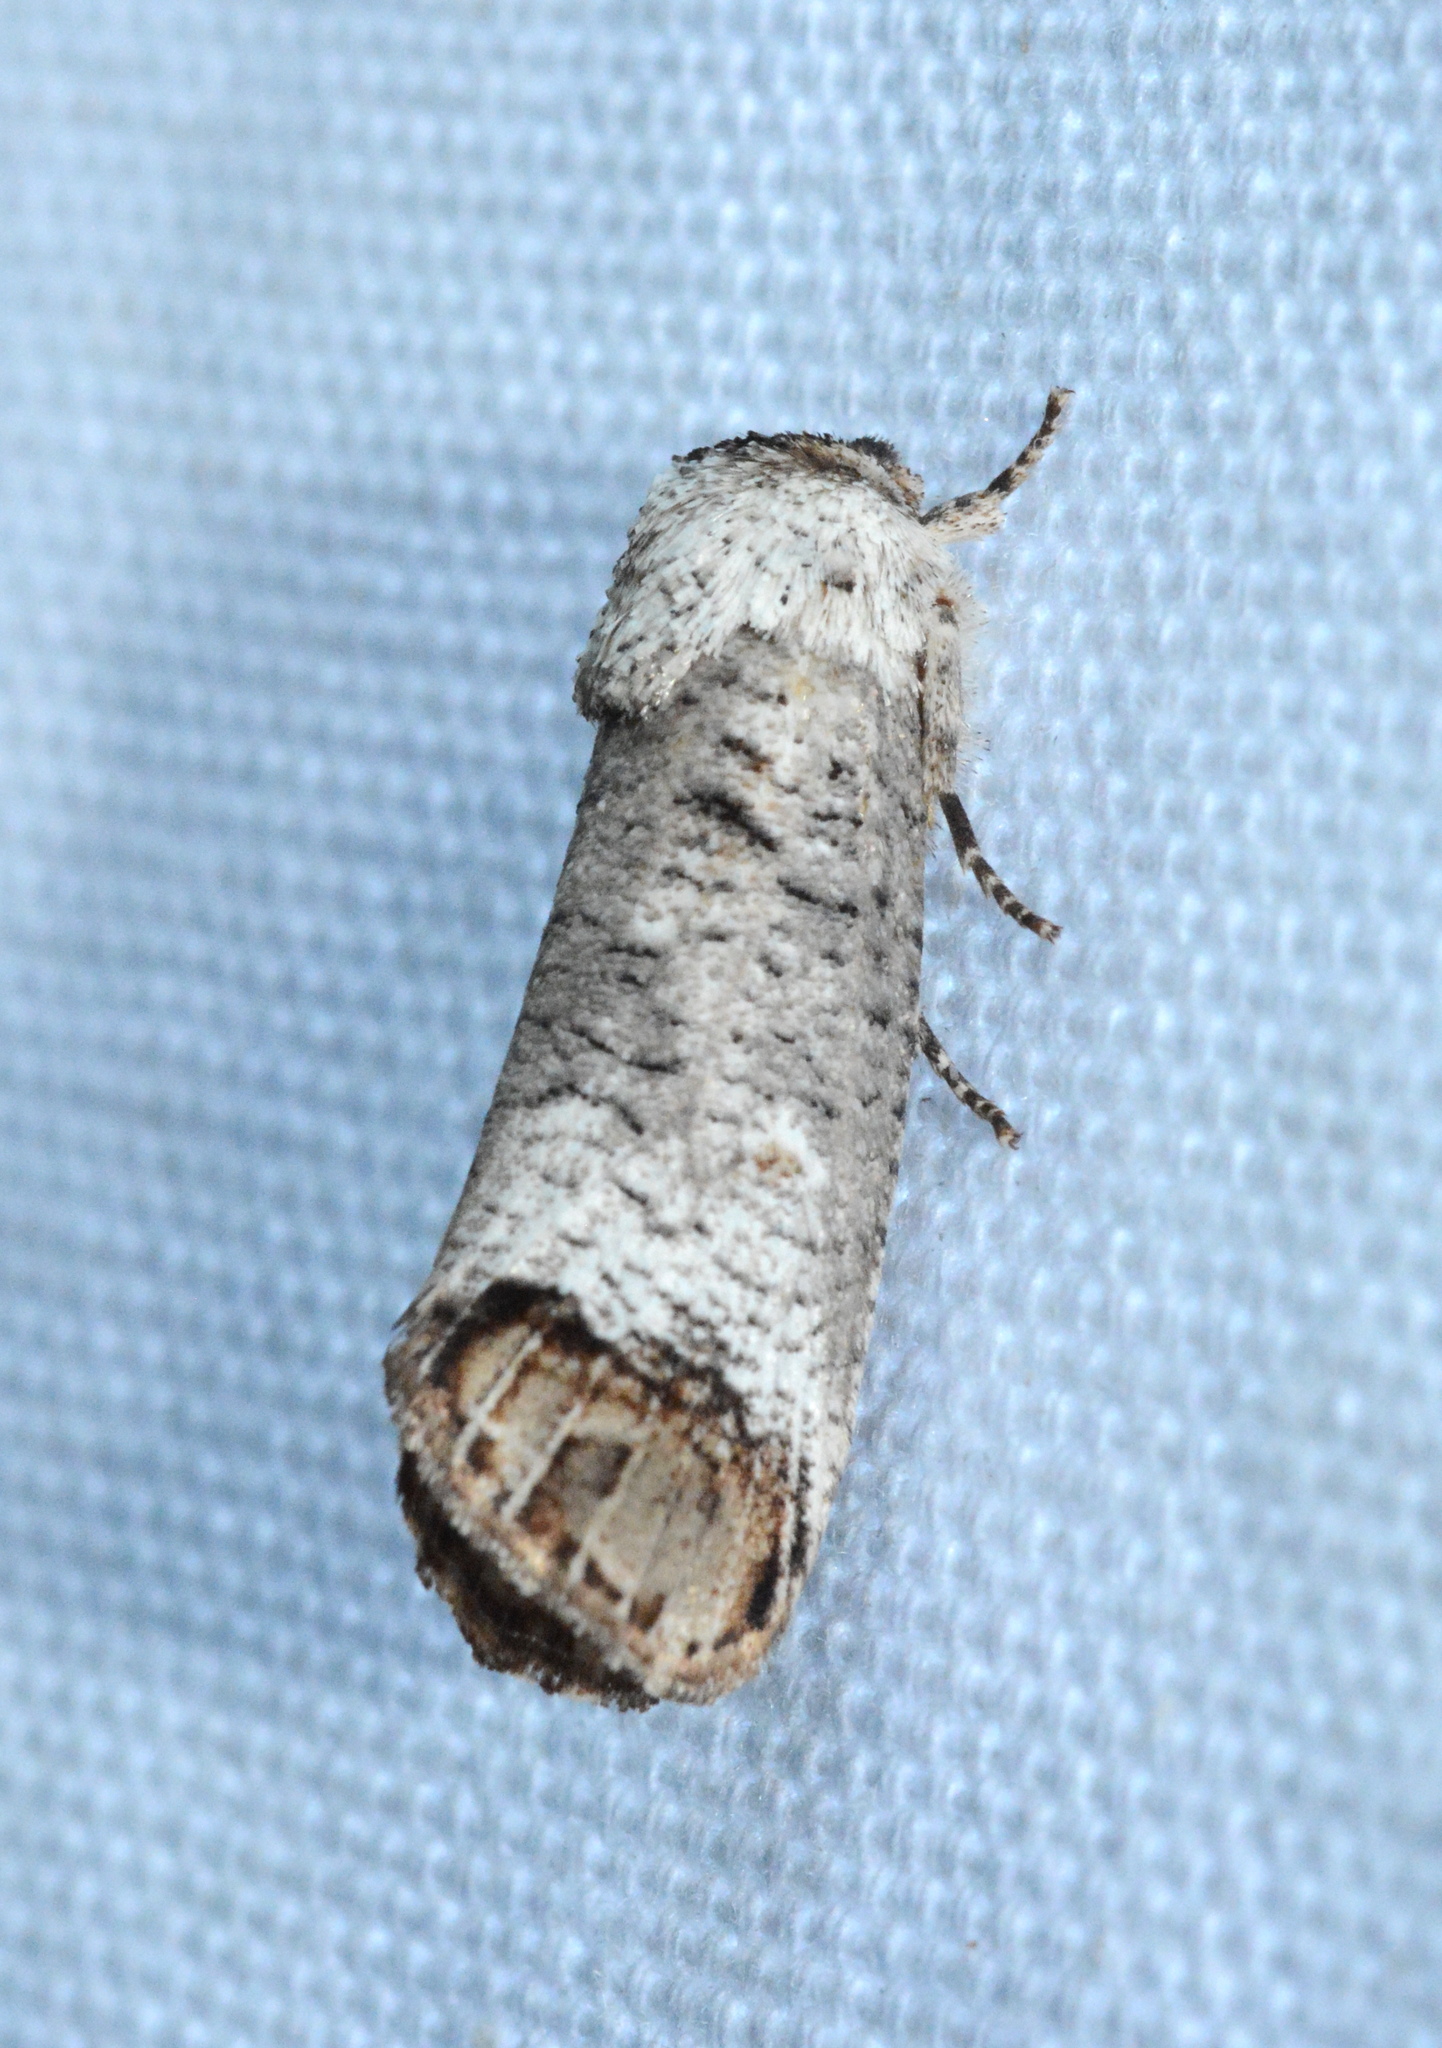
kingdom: Animalia
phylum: Arthropoda
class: Insecta
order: Lepidoptera
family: Cossidae
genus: Cossula
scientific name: Cossula magnifica
